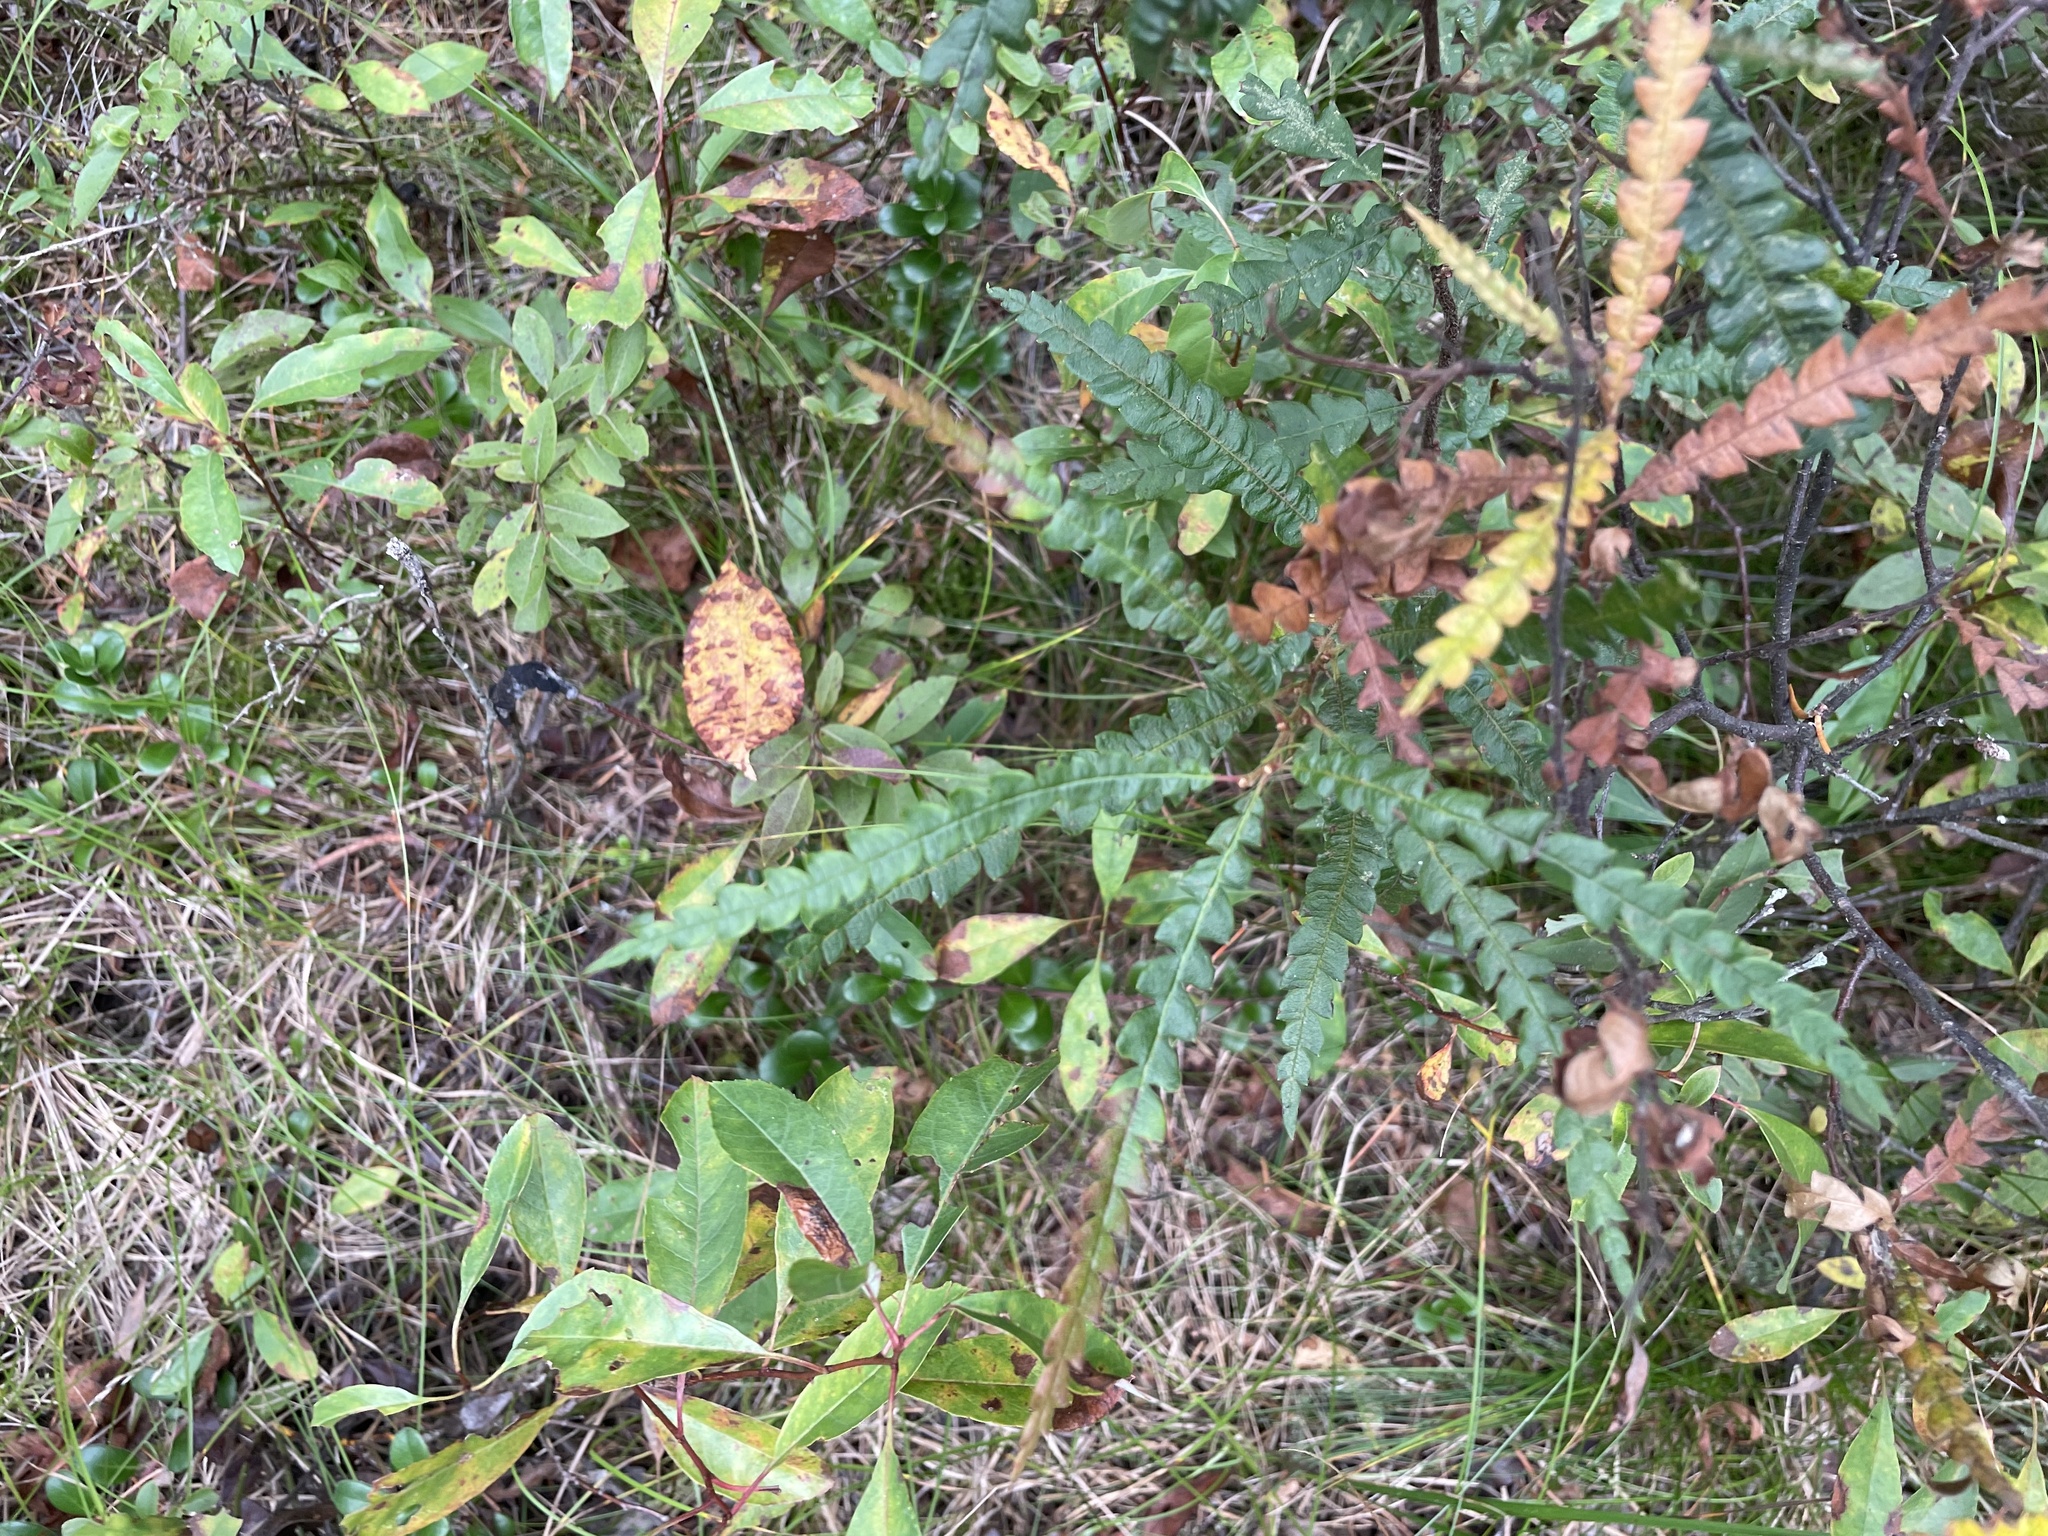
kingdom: Plantae
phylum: Tracheophyta
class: Magnoliopsida
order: Fagales
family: Myricaceae
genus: Comptonia
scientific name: Comptonia peregrina
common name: Sweet-fern
